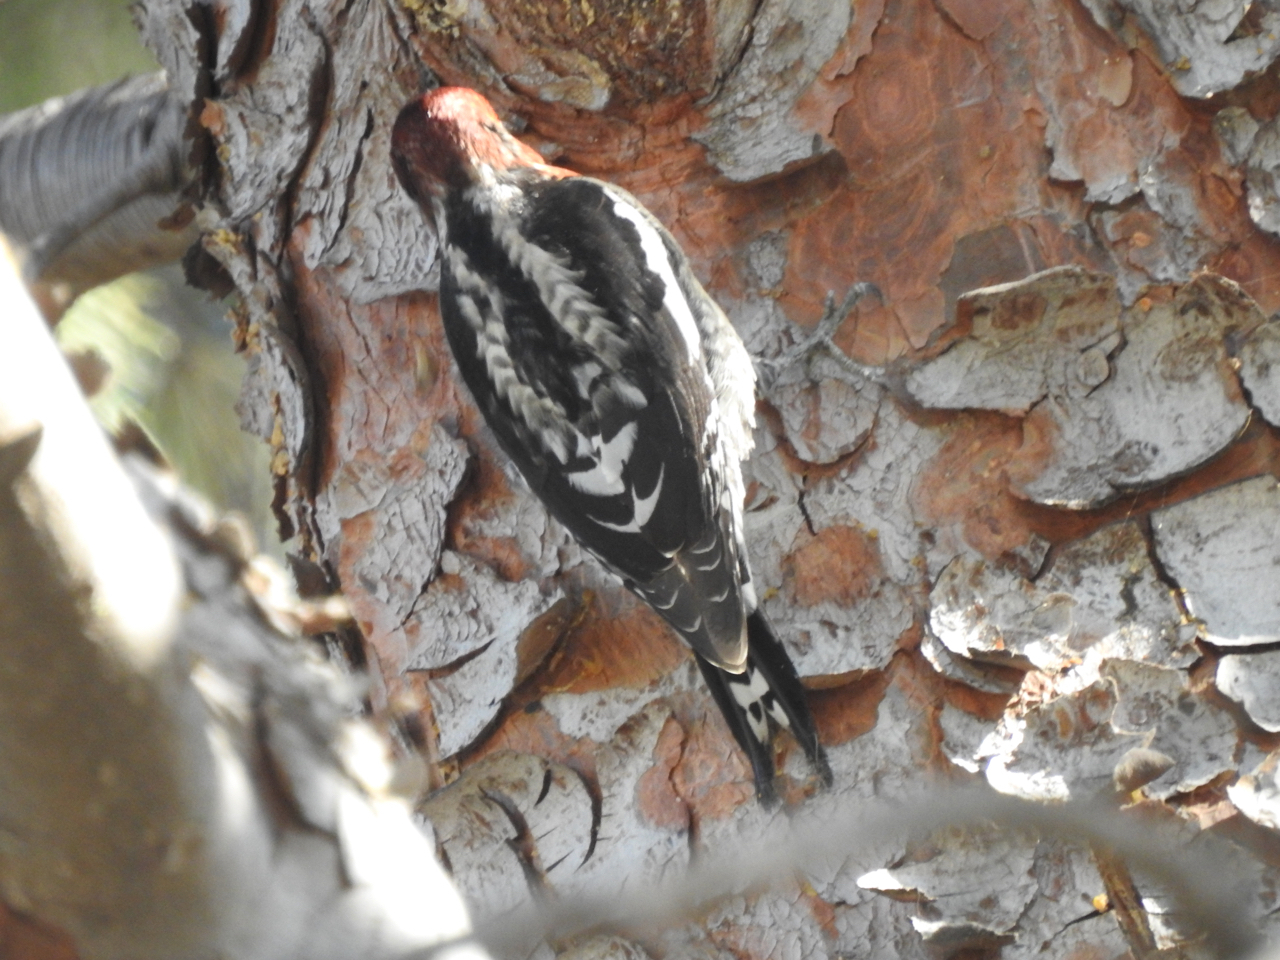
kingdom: Animalia
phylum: Chordata
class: Aves
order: Piciformes
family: Picidae
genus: Sphyrapicus
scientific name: Sphyrapicus ruber
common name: Red-breasted sapsucker
